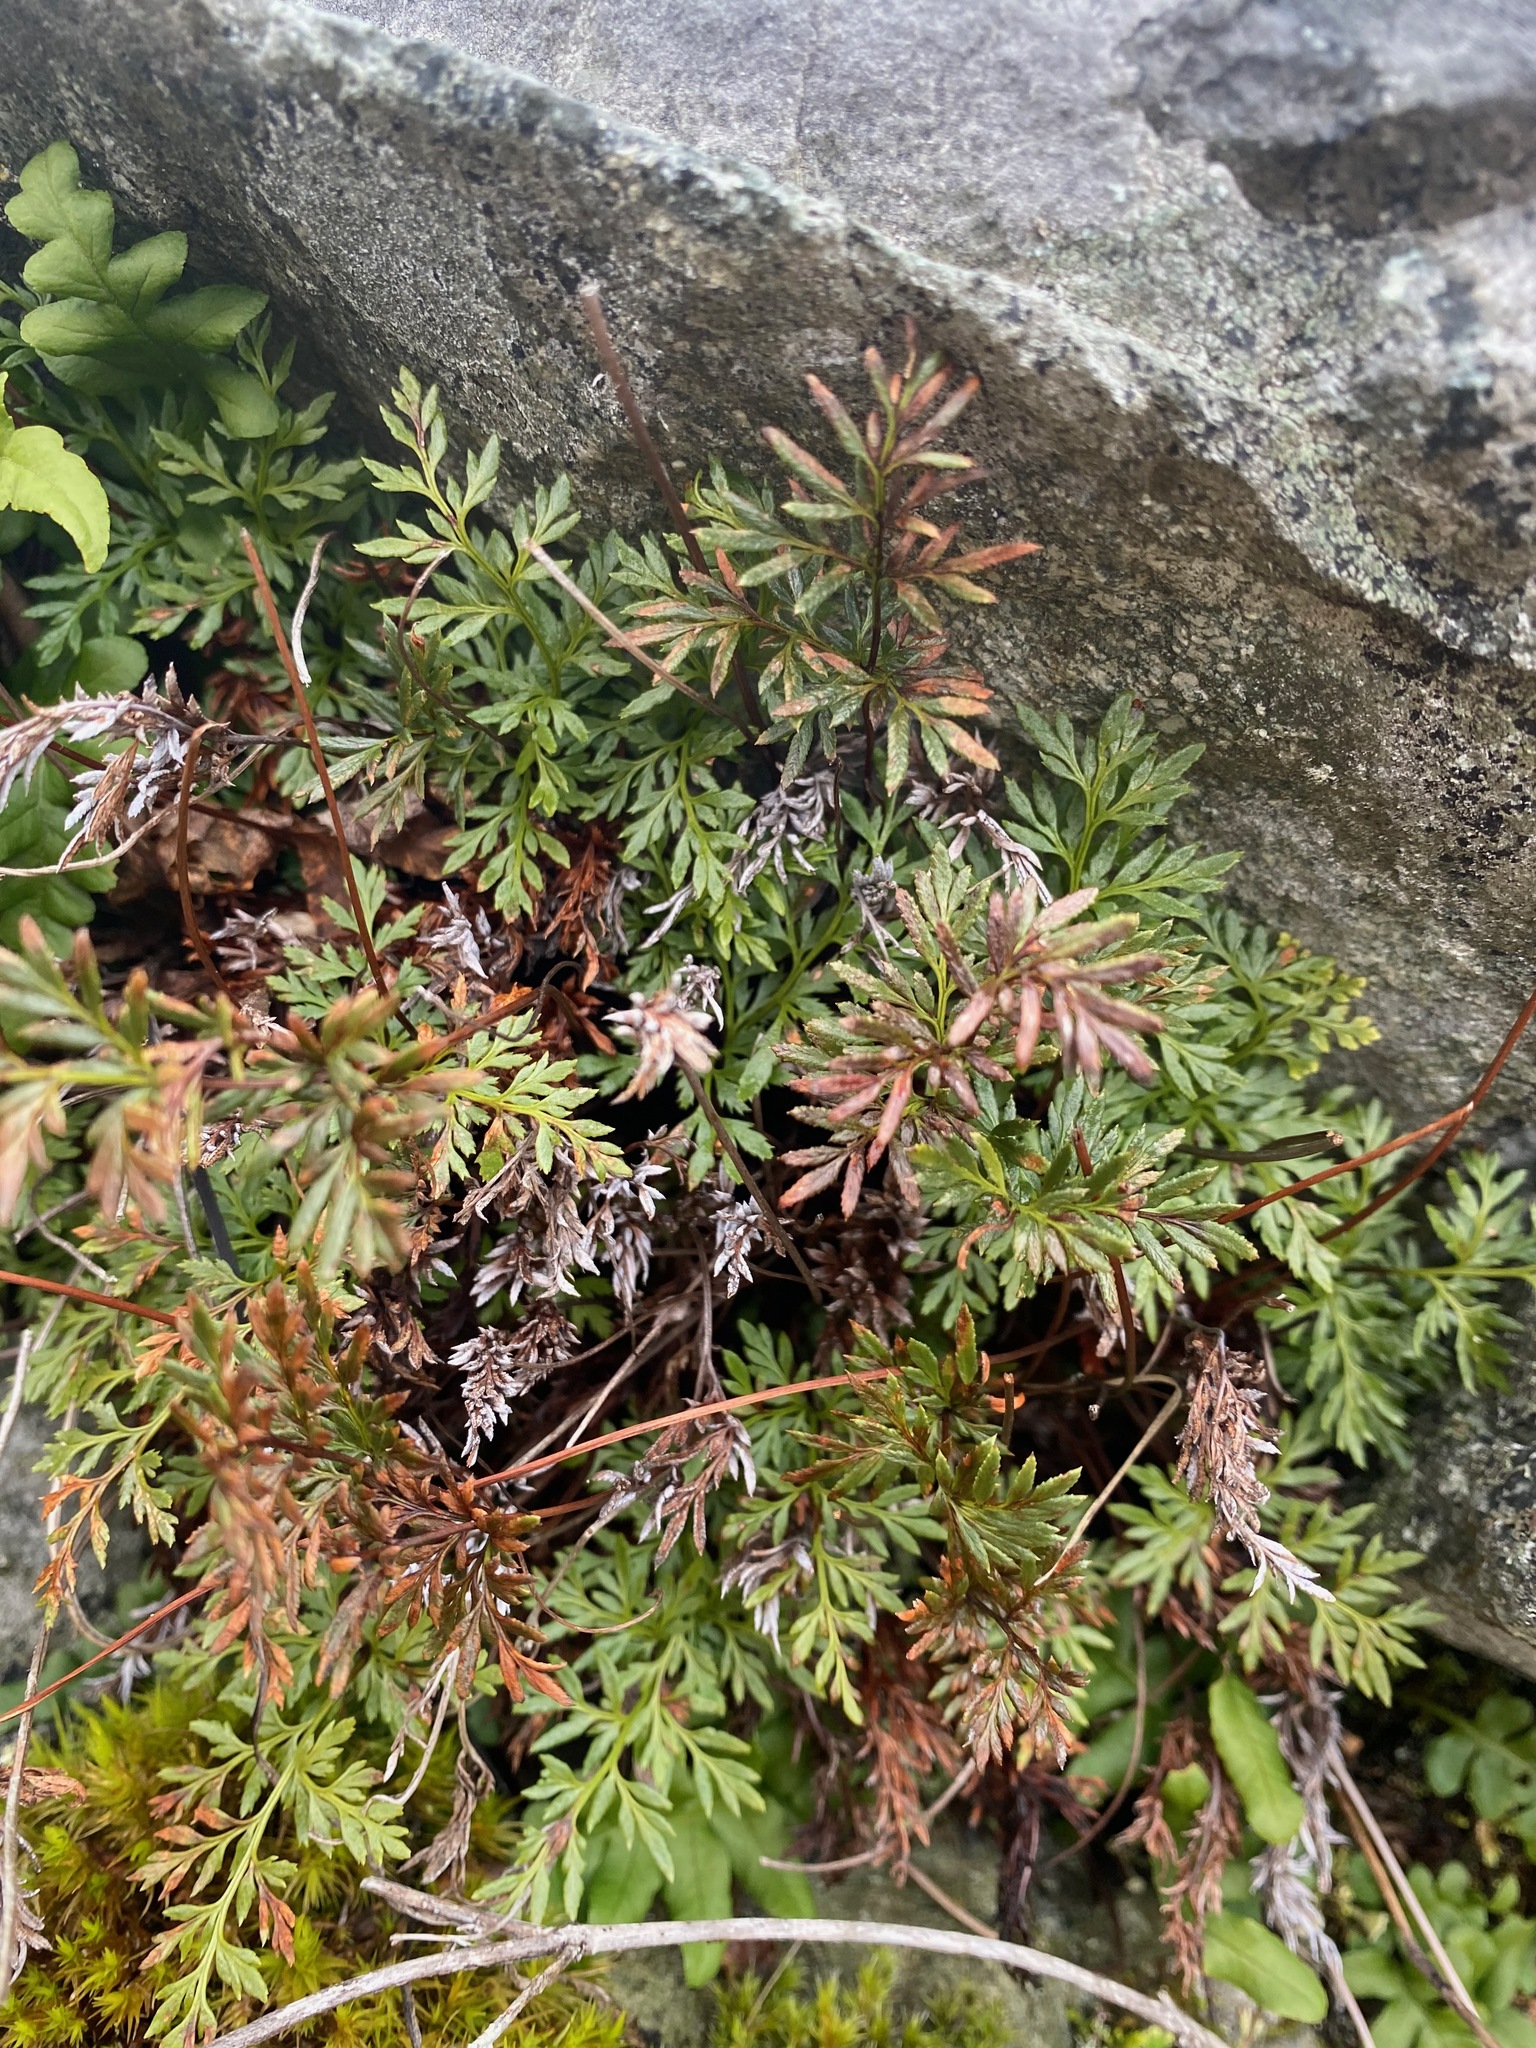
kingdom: Plantae
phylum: Tracheophyta
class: Polypodiopsida
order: Polypodiales
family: Pteridaceae
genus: Aspidotis
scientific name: Aspidotis densa
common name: Indian's dream
